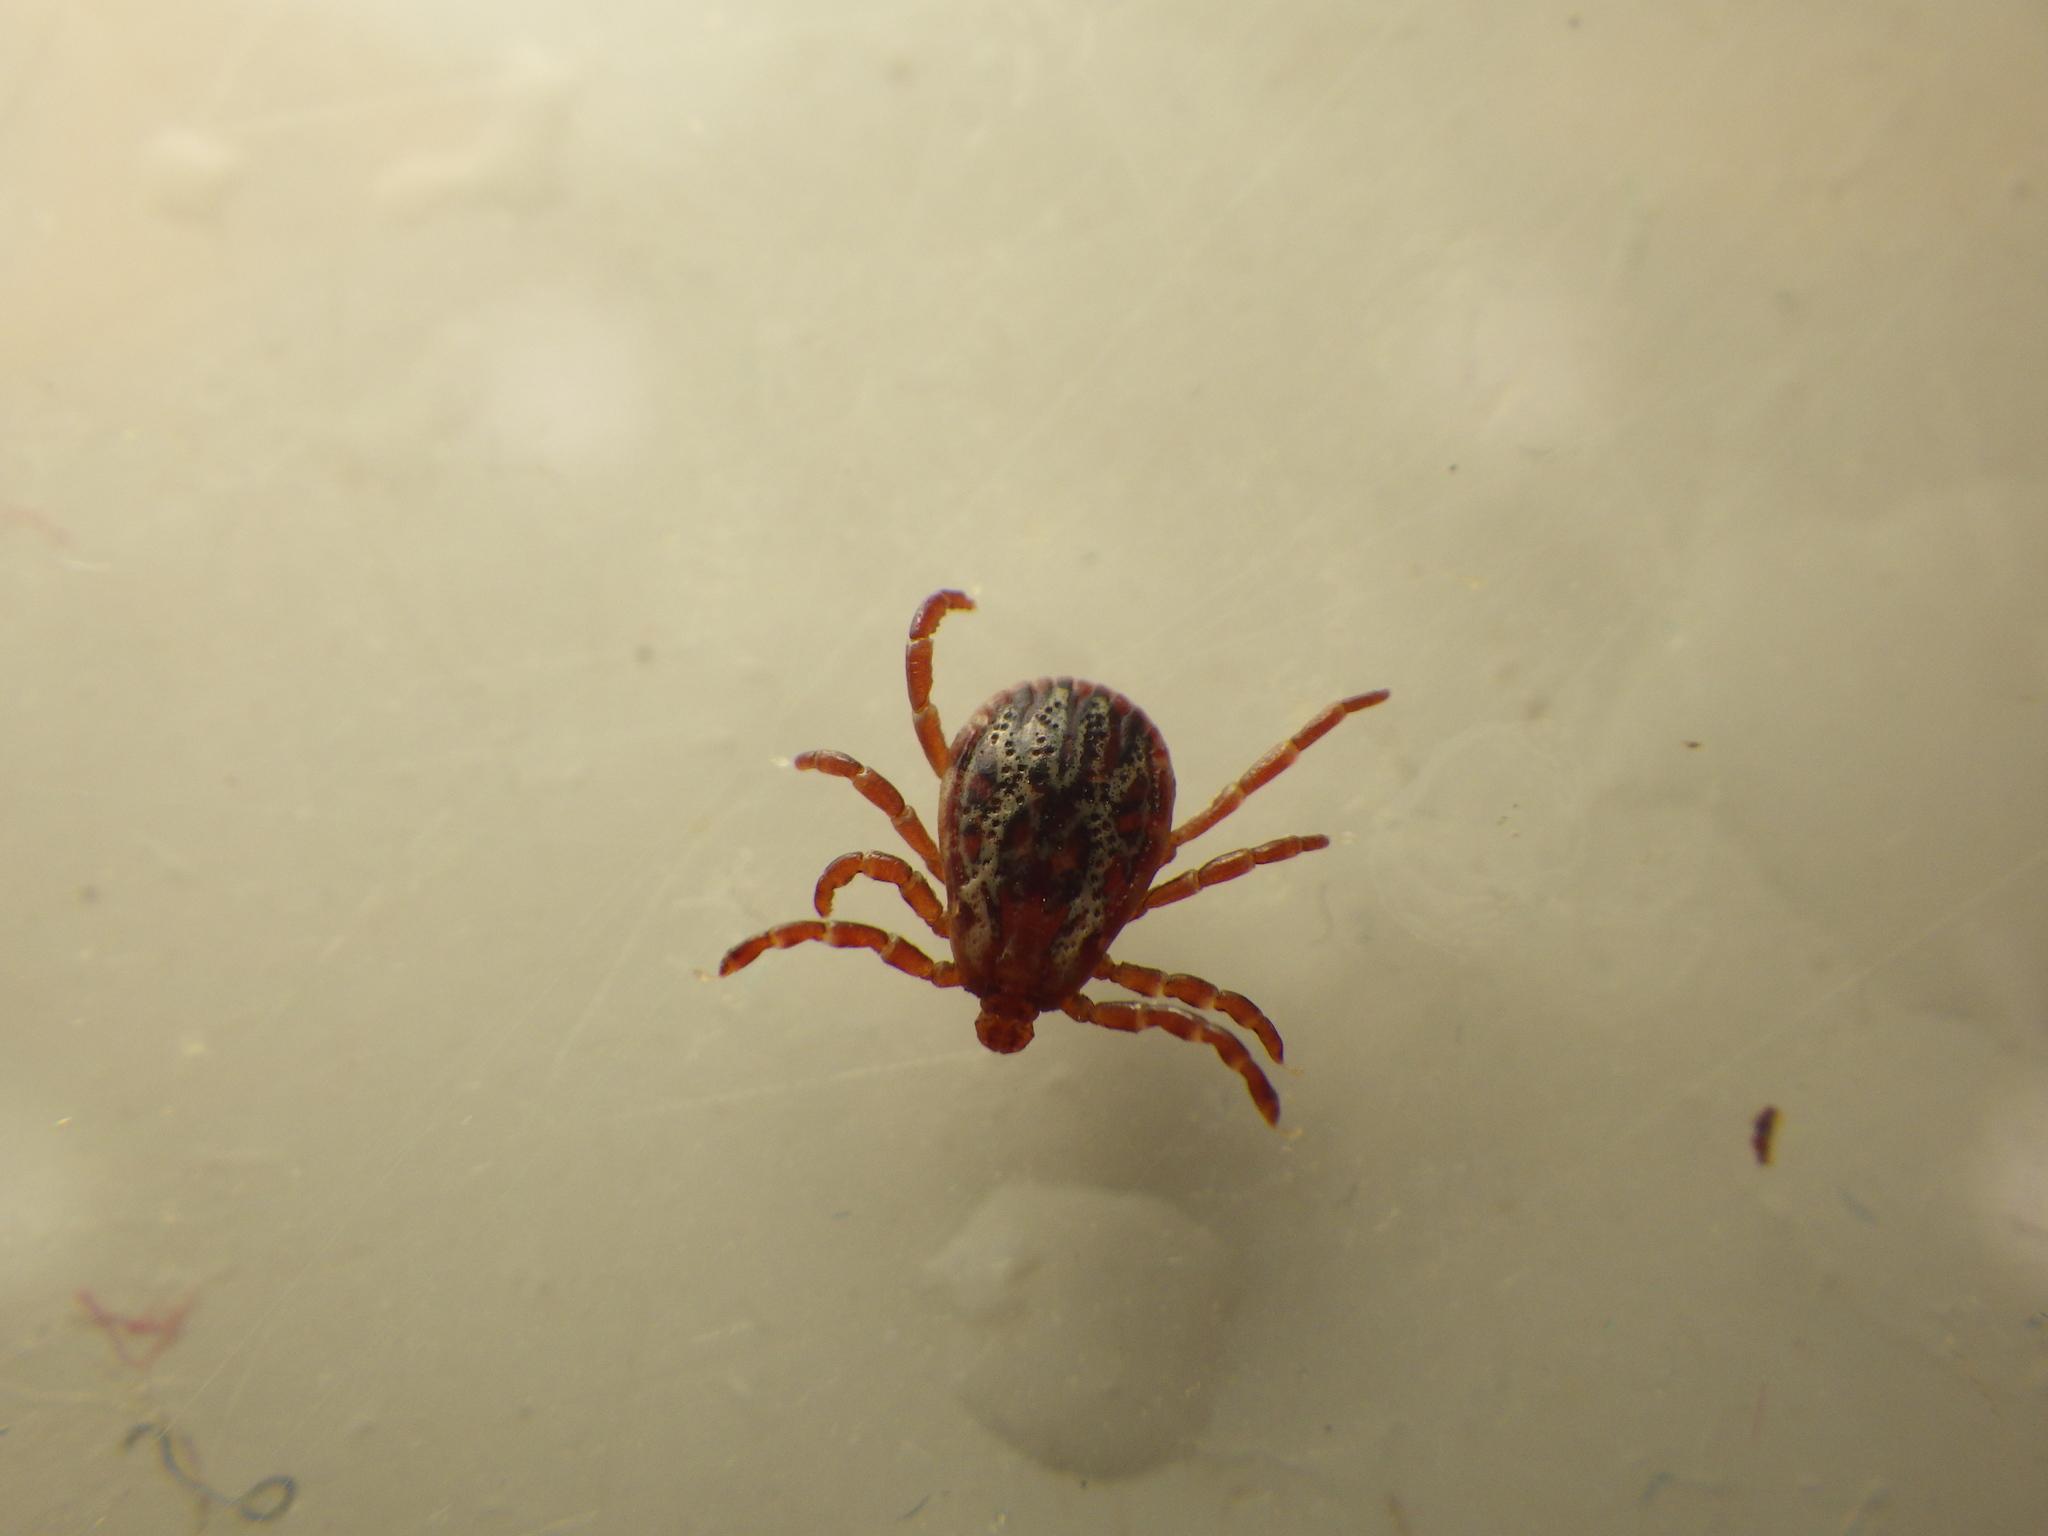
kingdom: Animalia
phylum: Arthropoda
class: Arachnida
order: Ixodida
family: Ixodidae
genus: Dermacentor
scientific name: Dermacentor variabilis
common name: American dog tick
